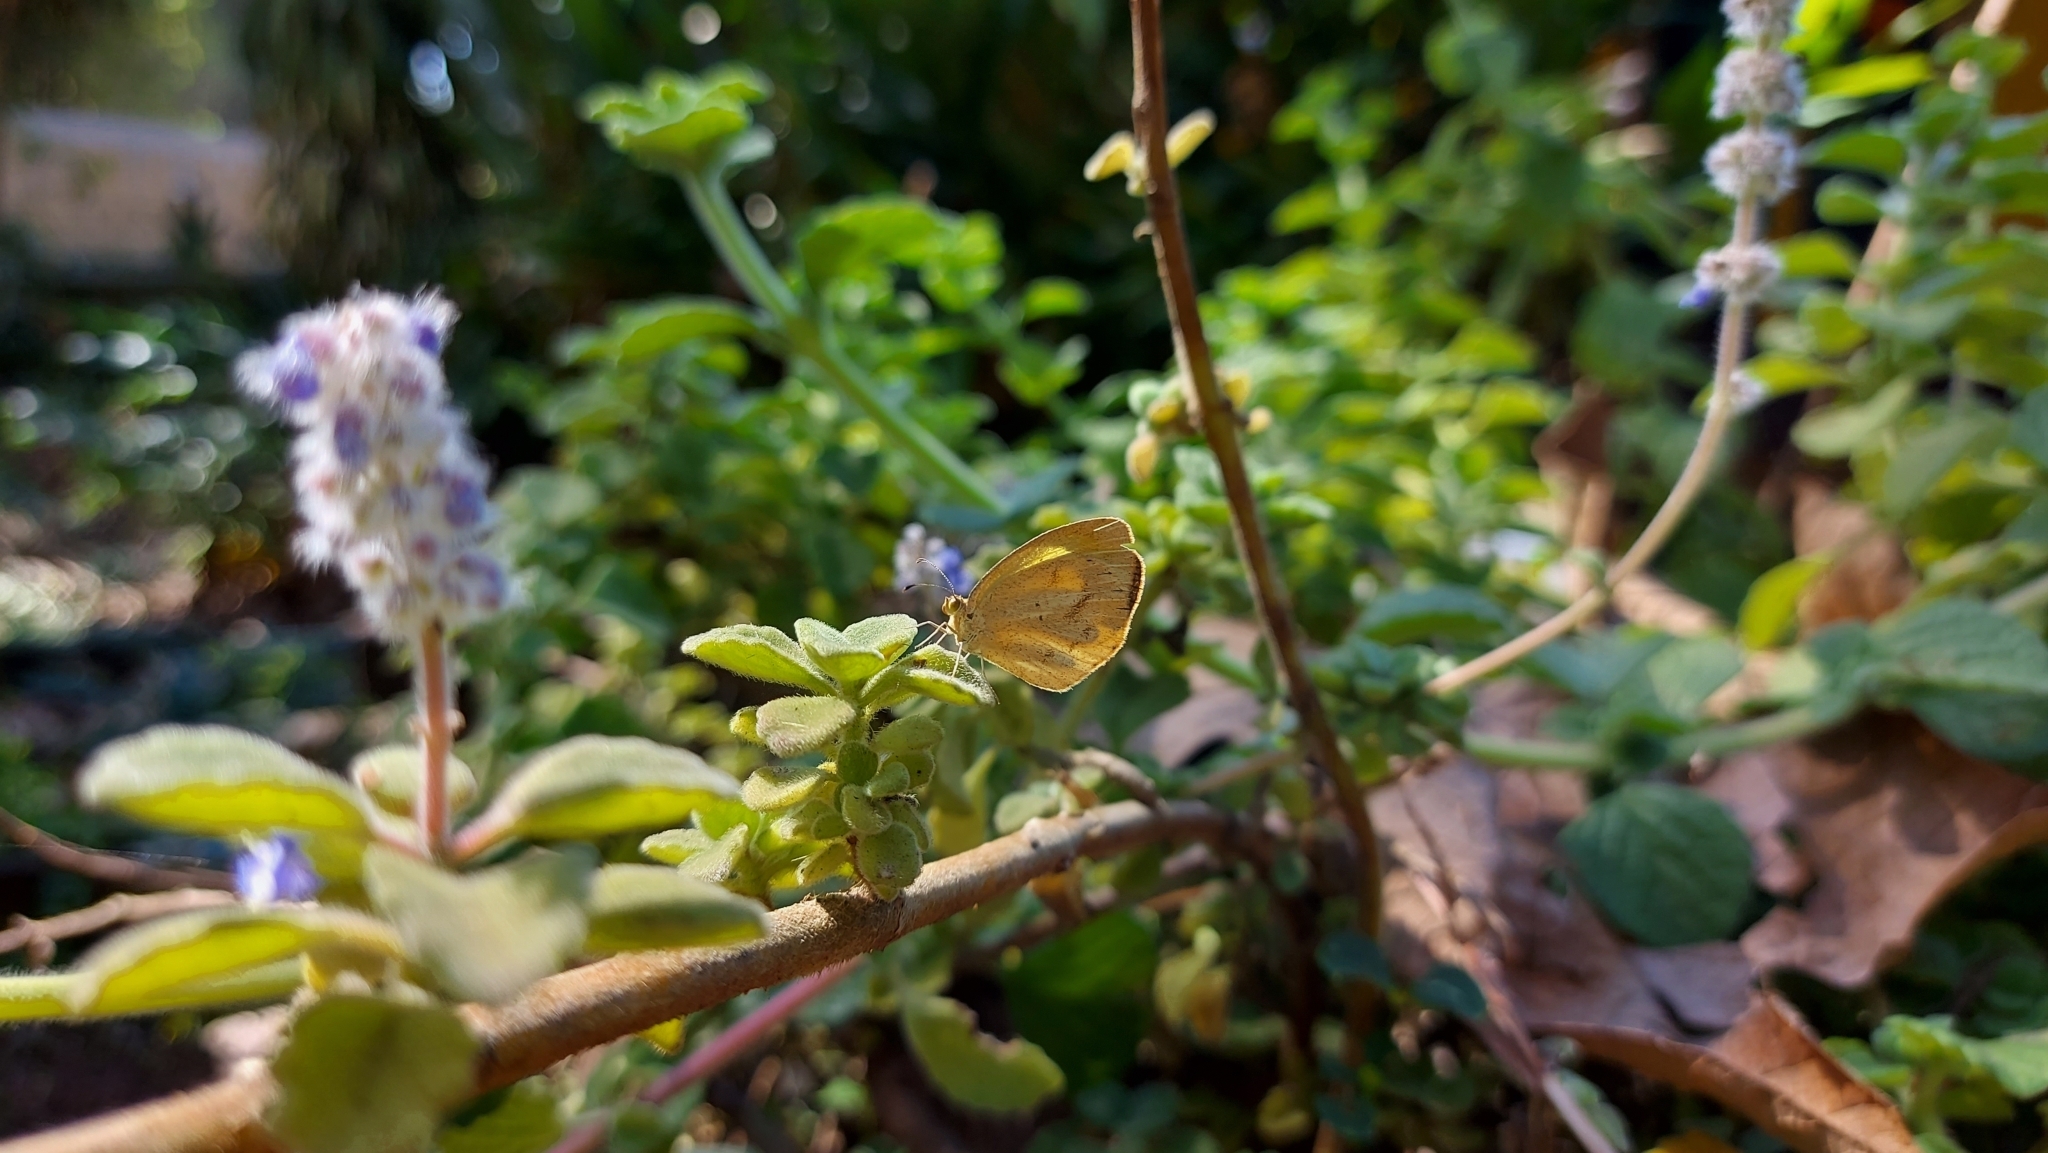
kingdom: Animalia
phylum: Arthropoda
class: Insecta
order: Lepidoptera
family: Pieridae
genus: Eurema
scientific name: Eurema daira
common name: Barred sulphur
